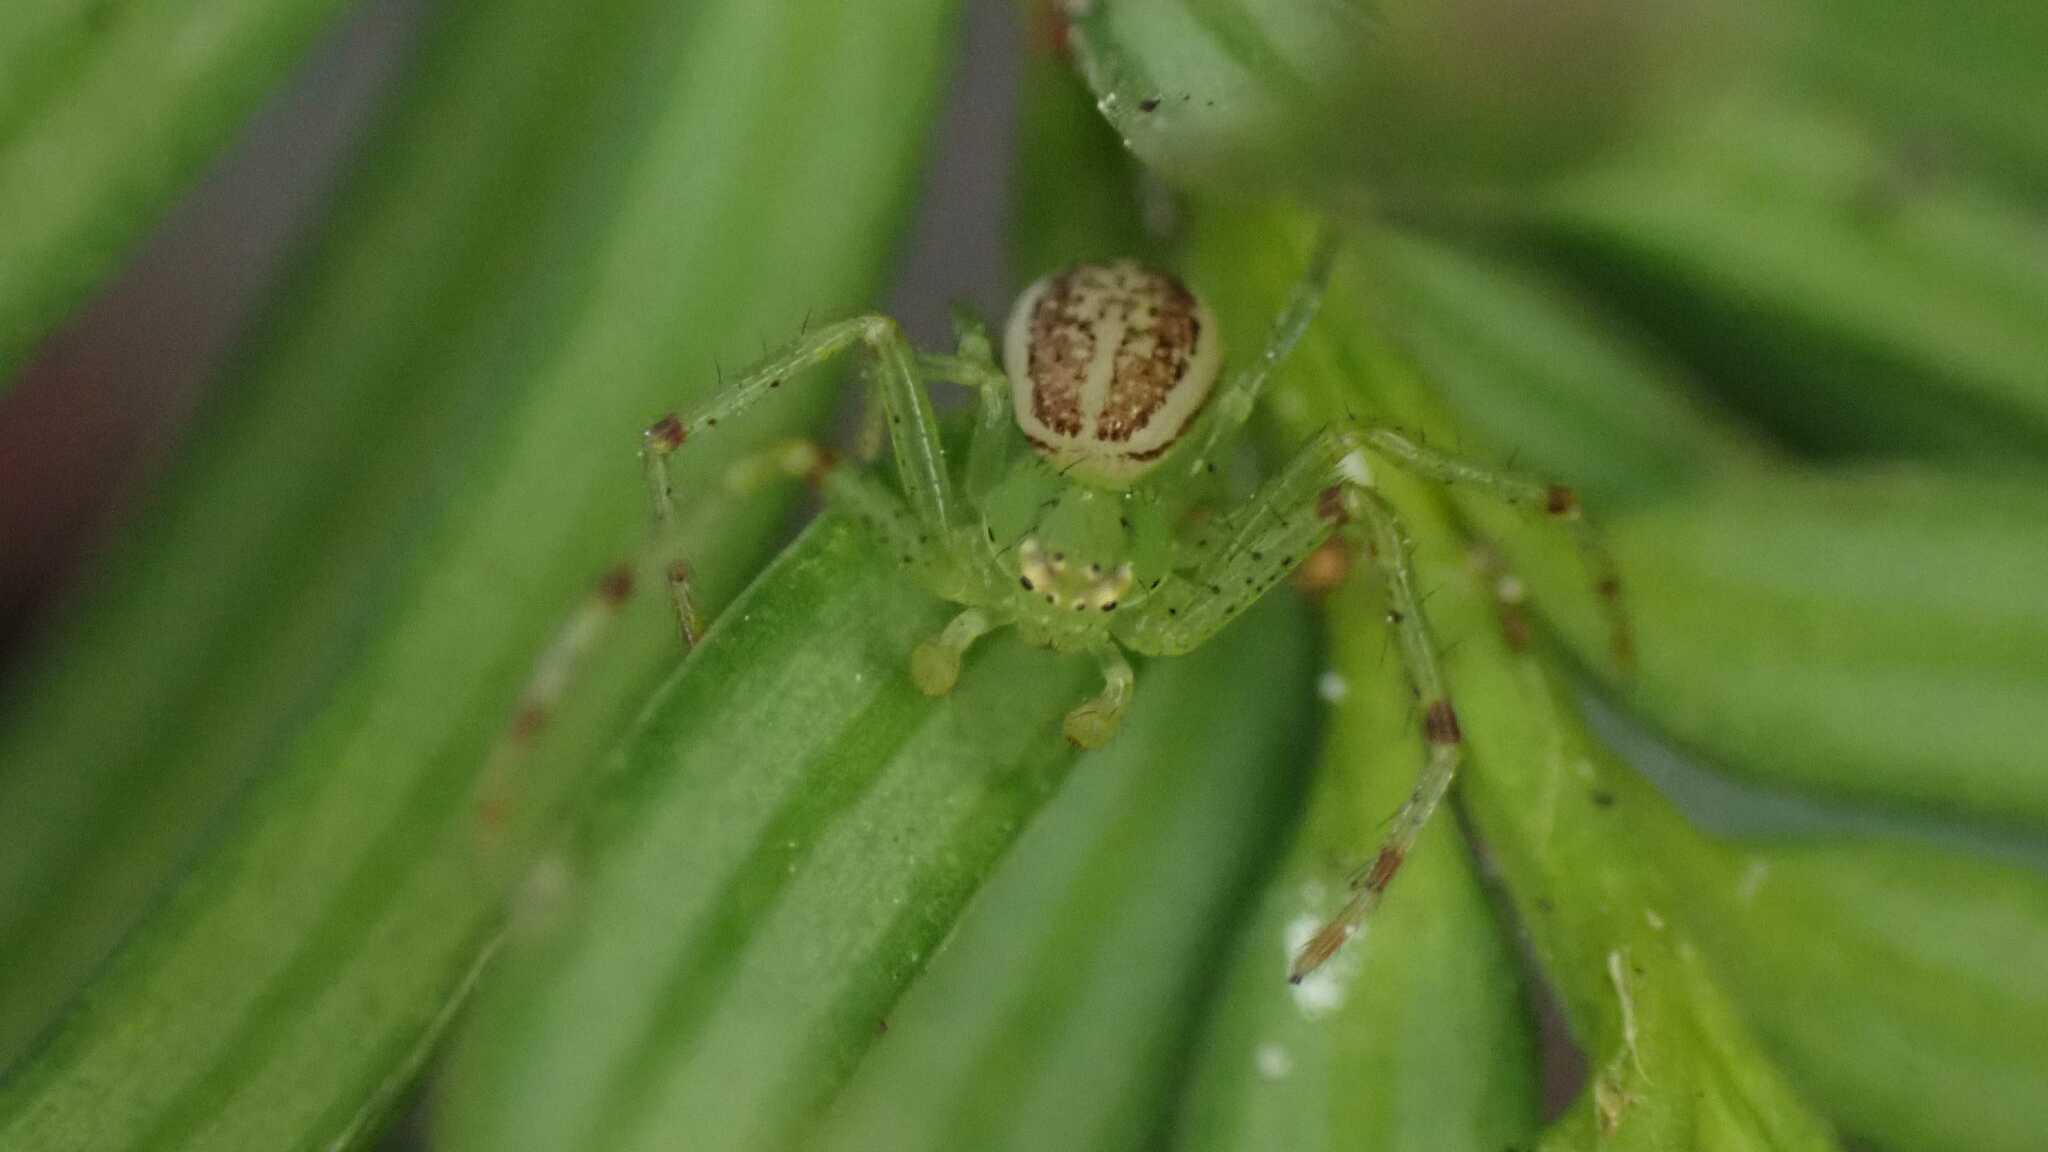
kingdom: Animalia
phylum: Arthropoda
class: Arachnida
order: Araneae
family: Thomisidae
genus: Diaea
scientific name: Diaea dorsata
